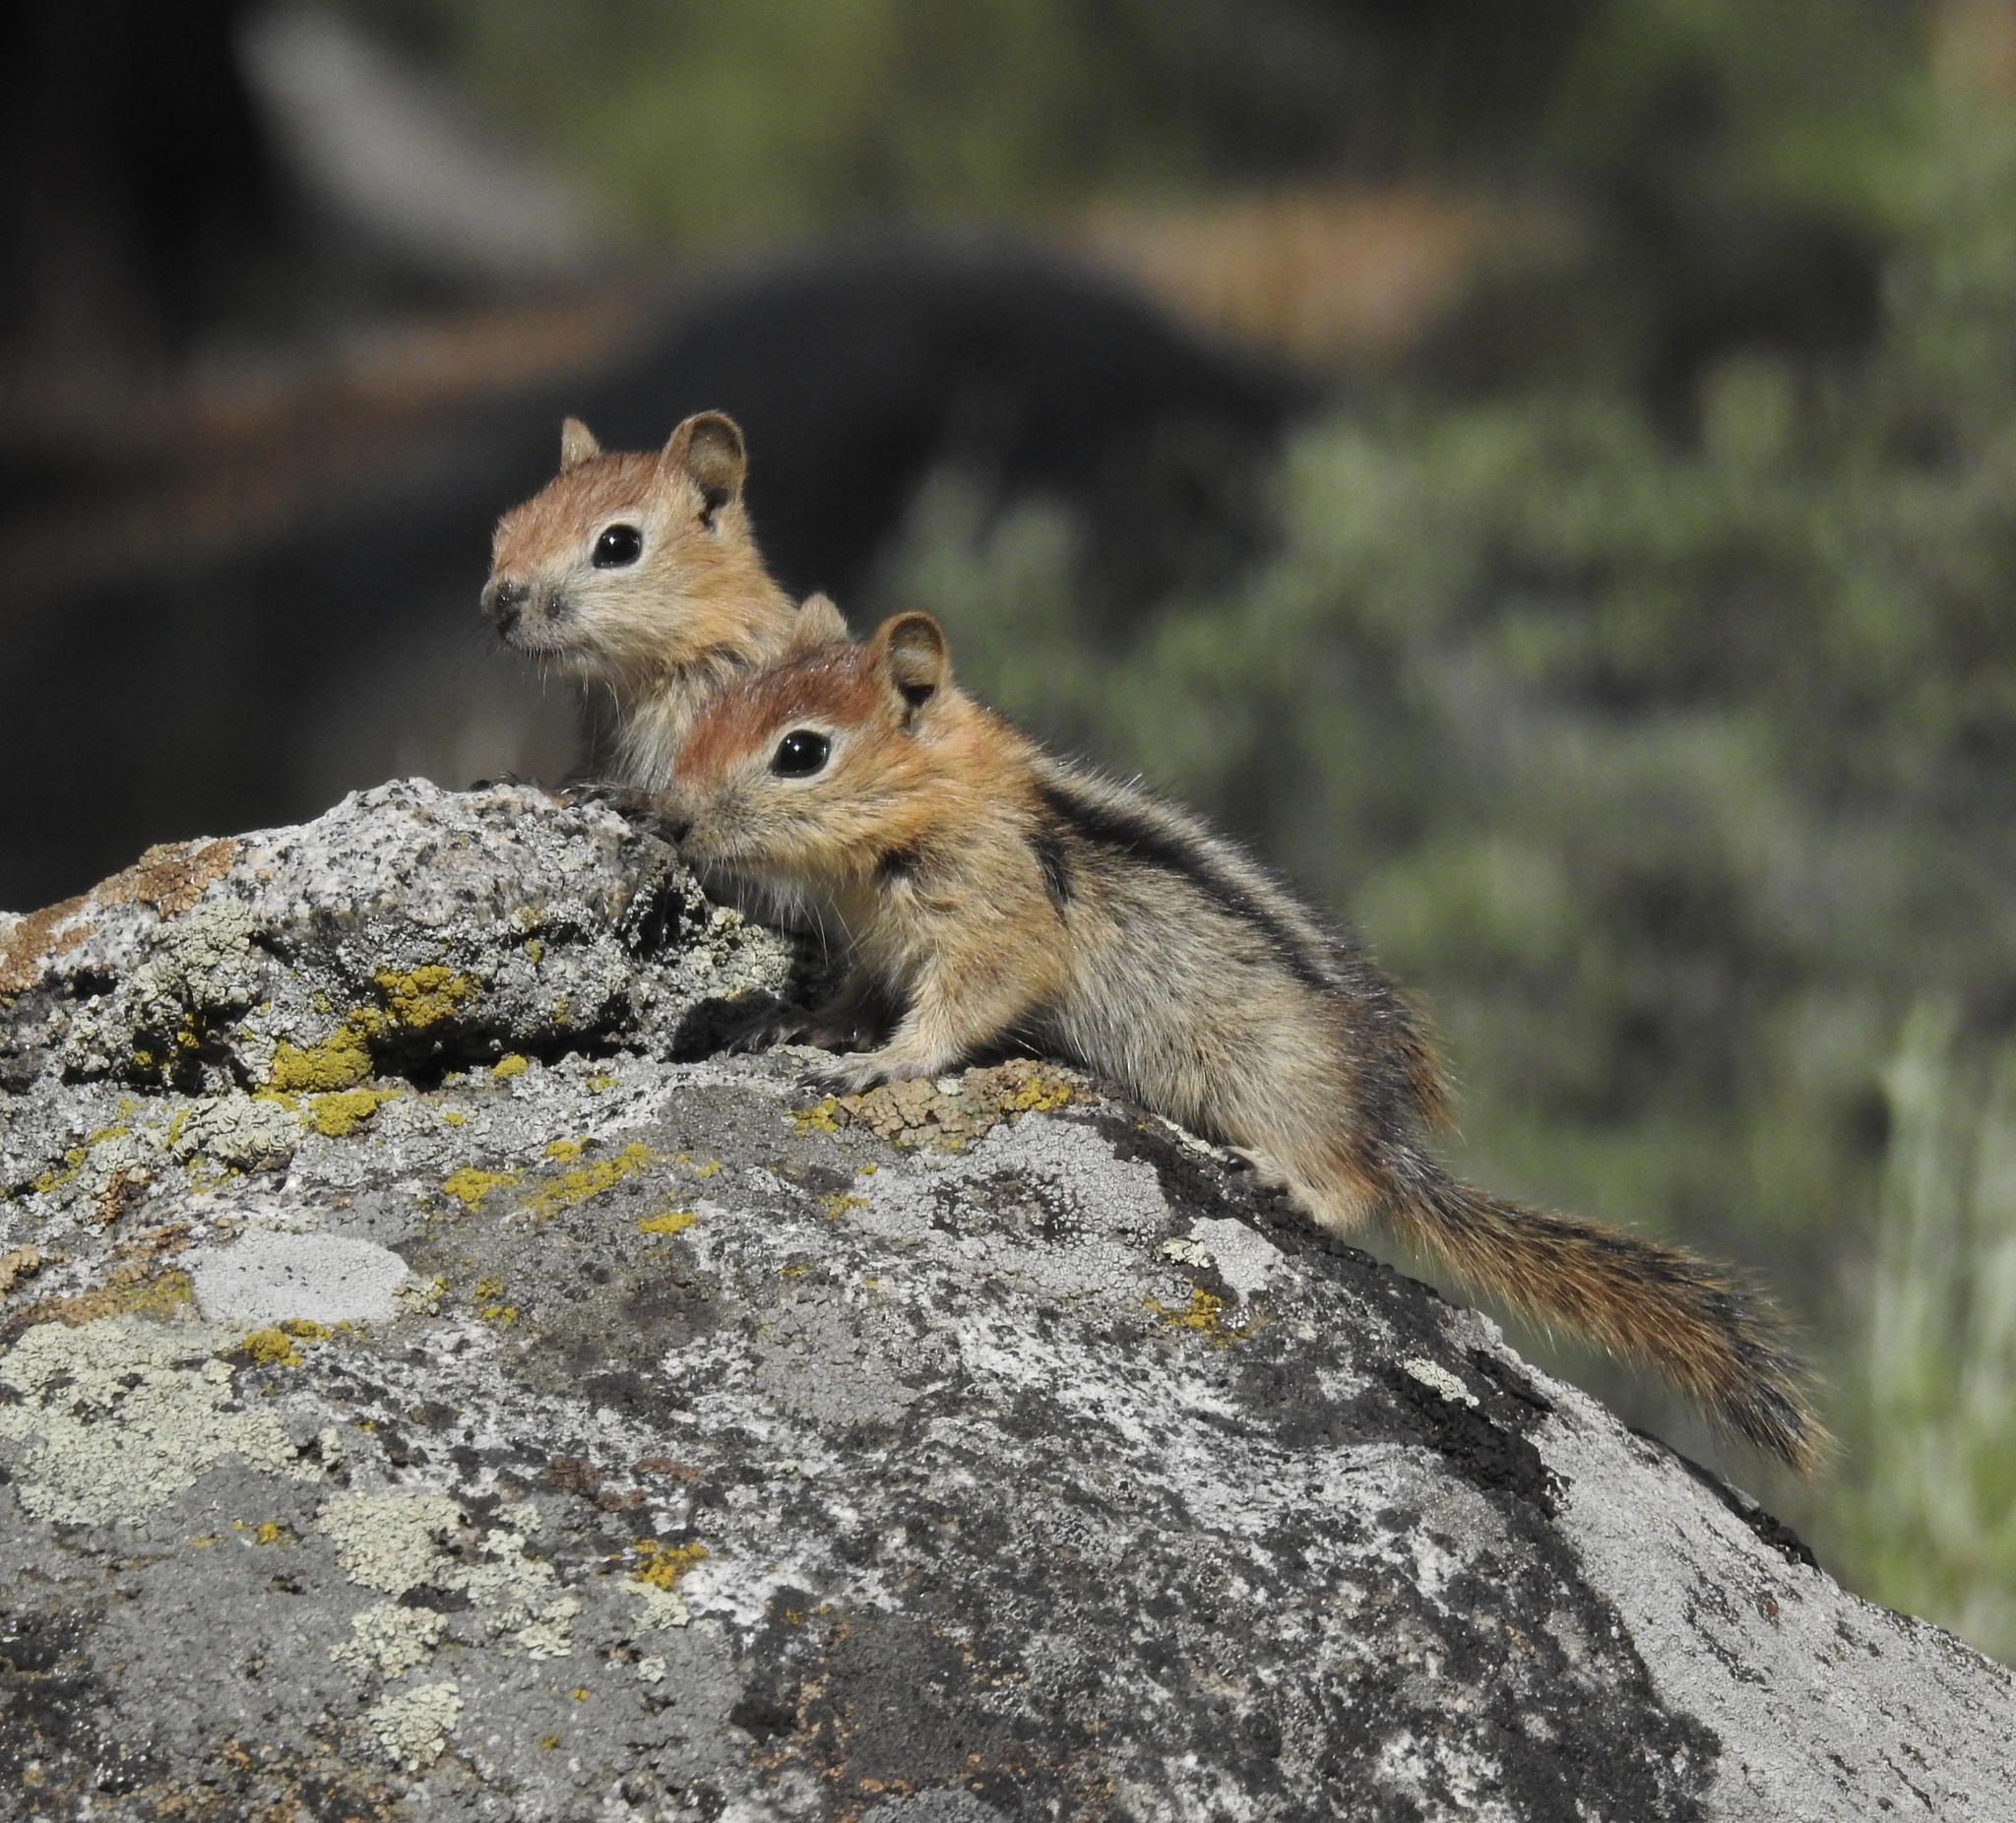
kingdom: Animalia
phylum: Chordata
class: Mammalia
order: Rodentia
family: Sciuridae
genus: Callospermophilus
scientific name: Callospermophilus lateralis
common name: Golden-mantled ground squirrel
